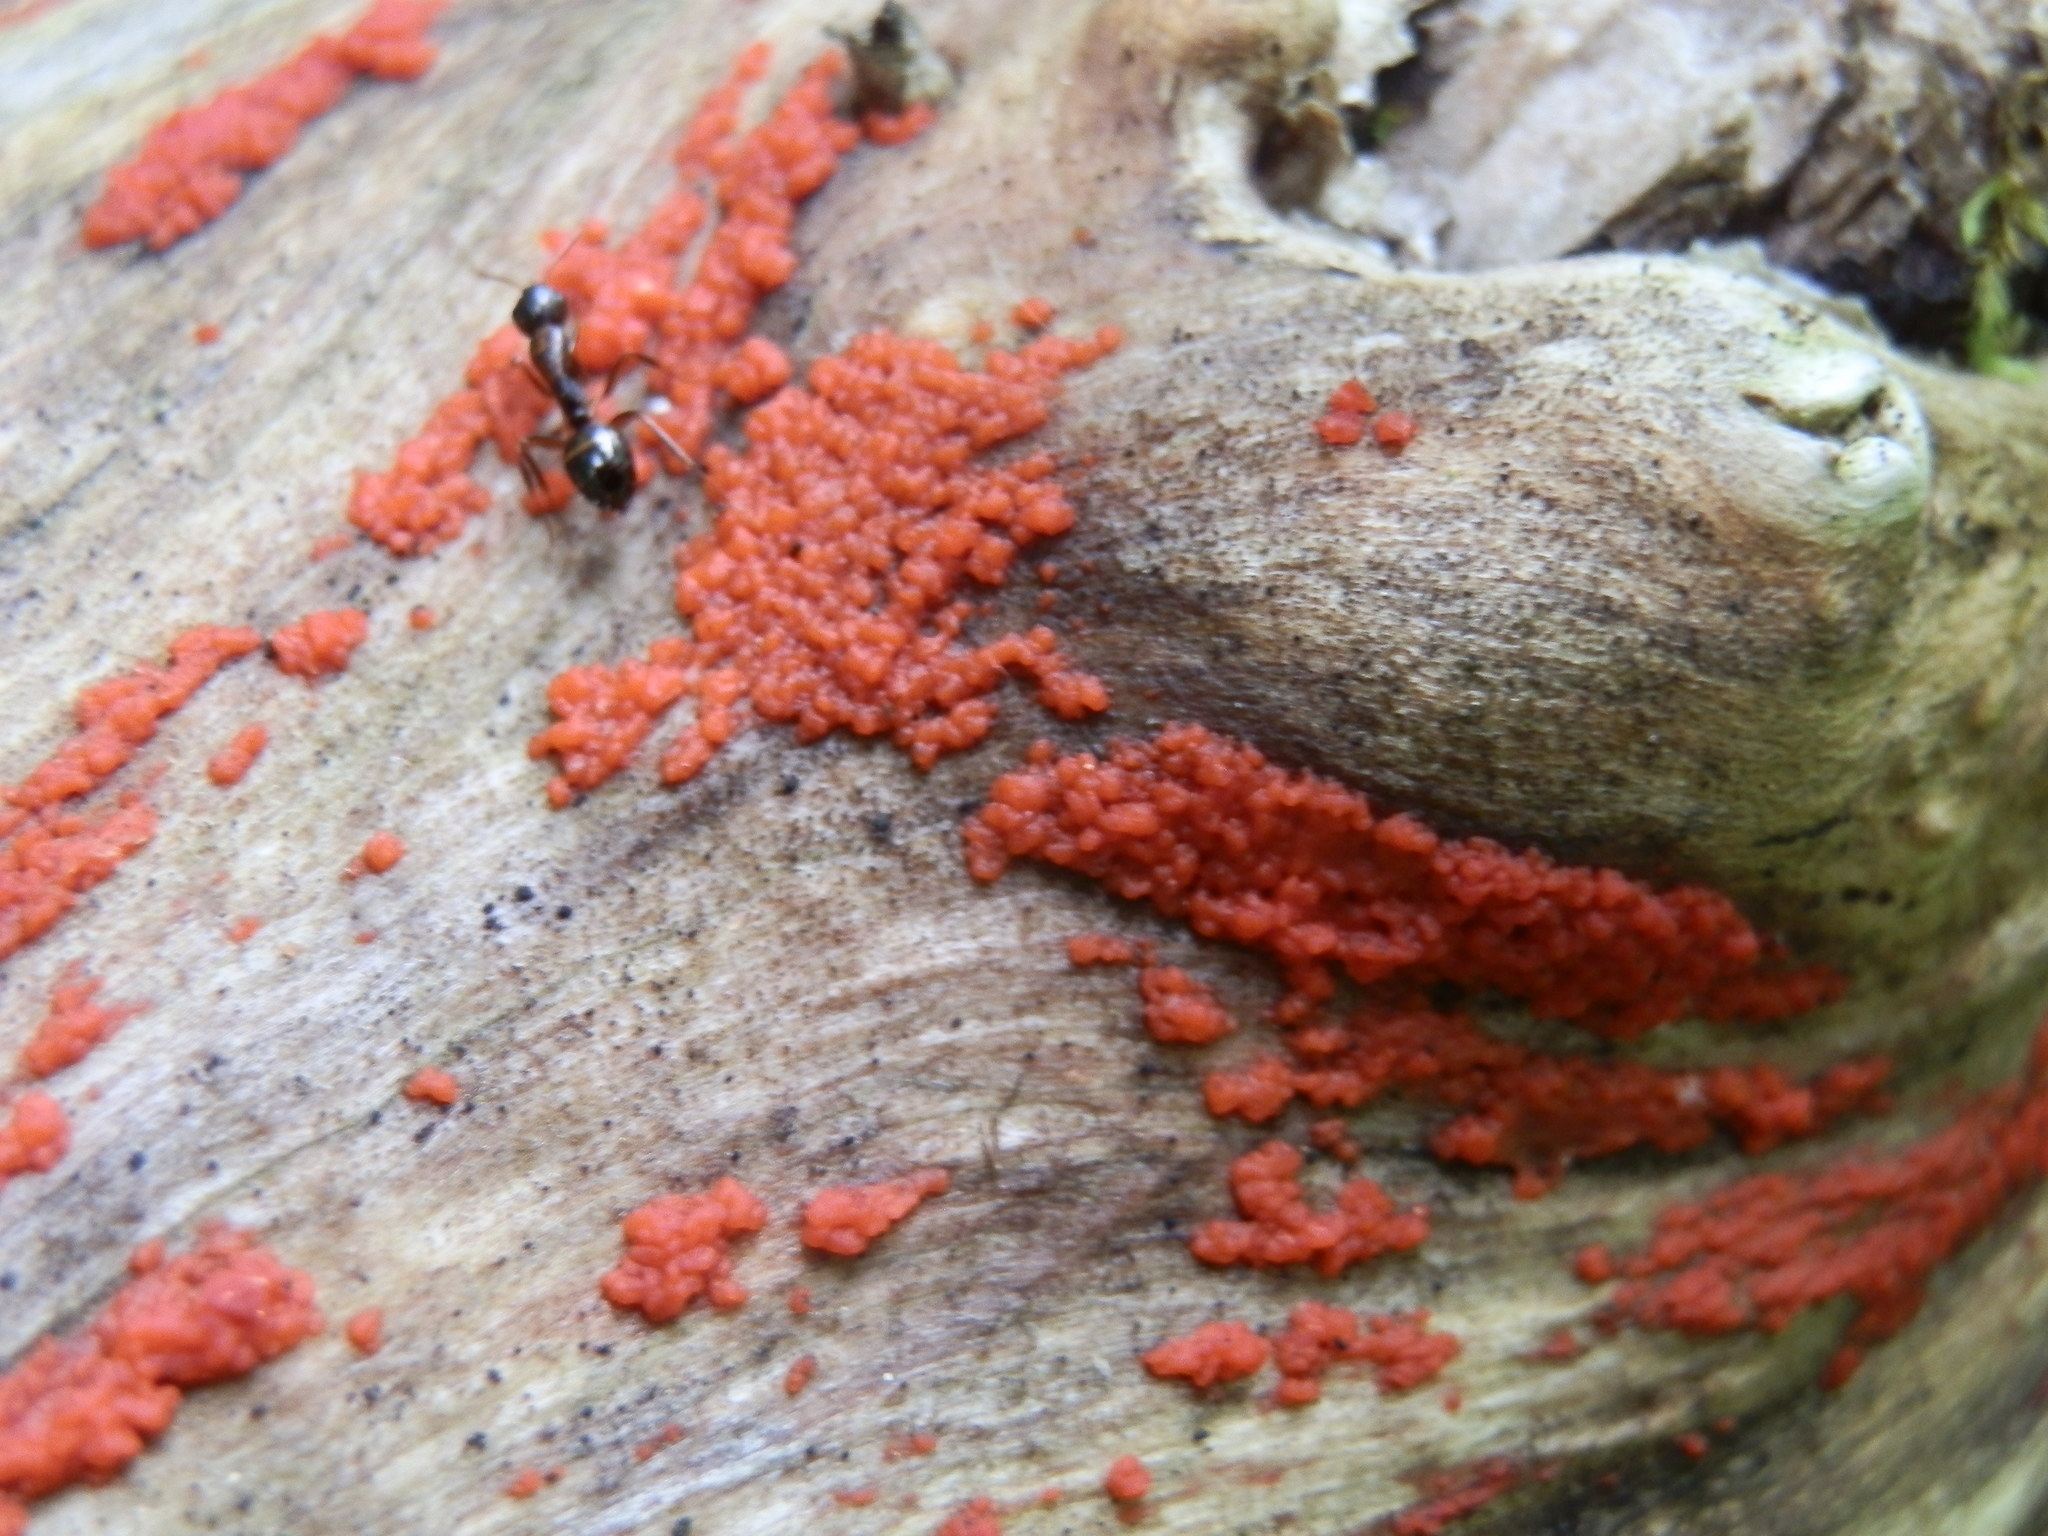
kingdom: Fungi
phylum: Basidiomycota
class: Agaricomycetes
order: Cantharellales
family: Tulasnellaceae
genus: Tulasnella
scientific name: Tulasnella aurantiaca
